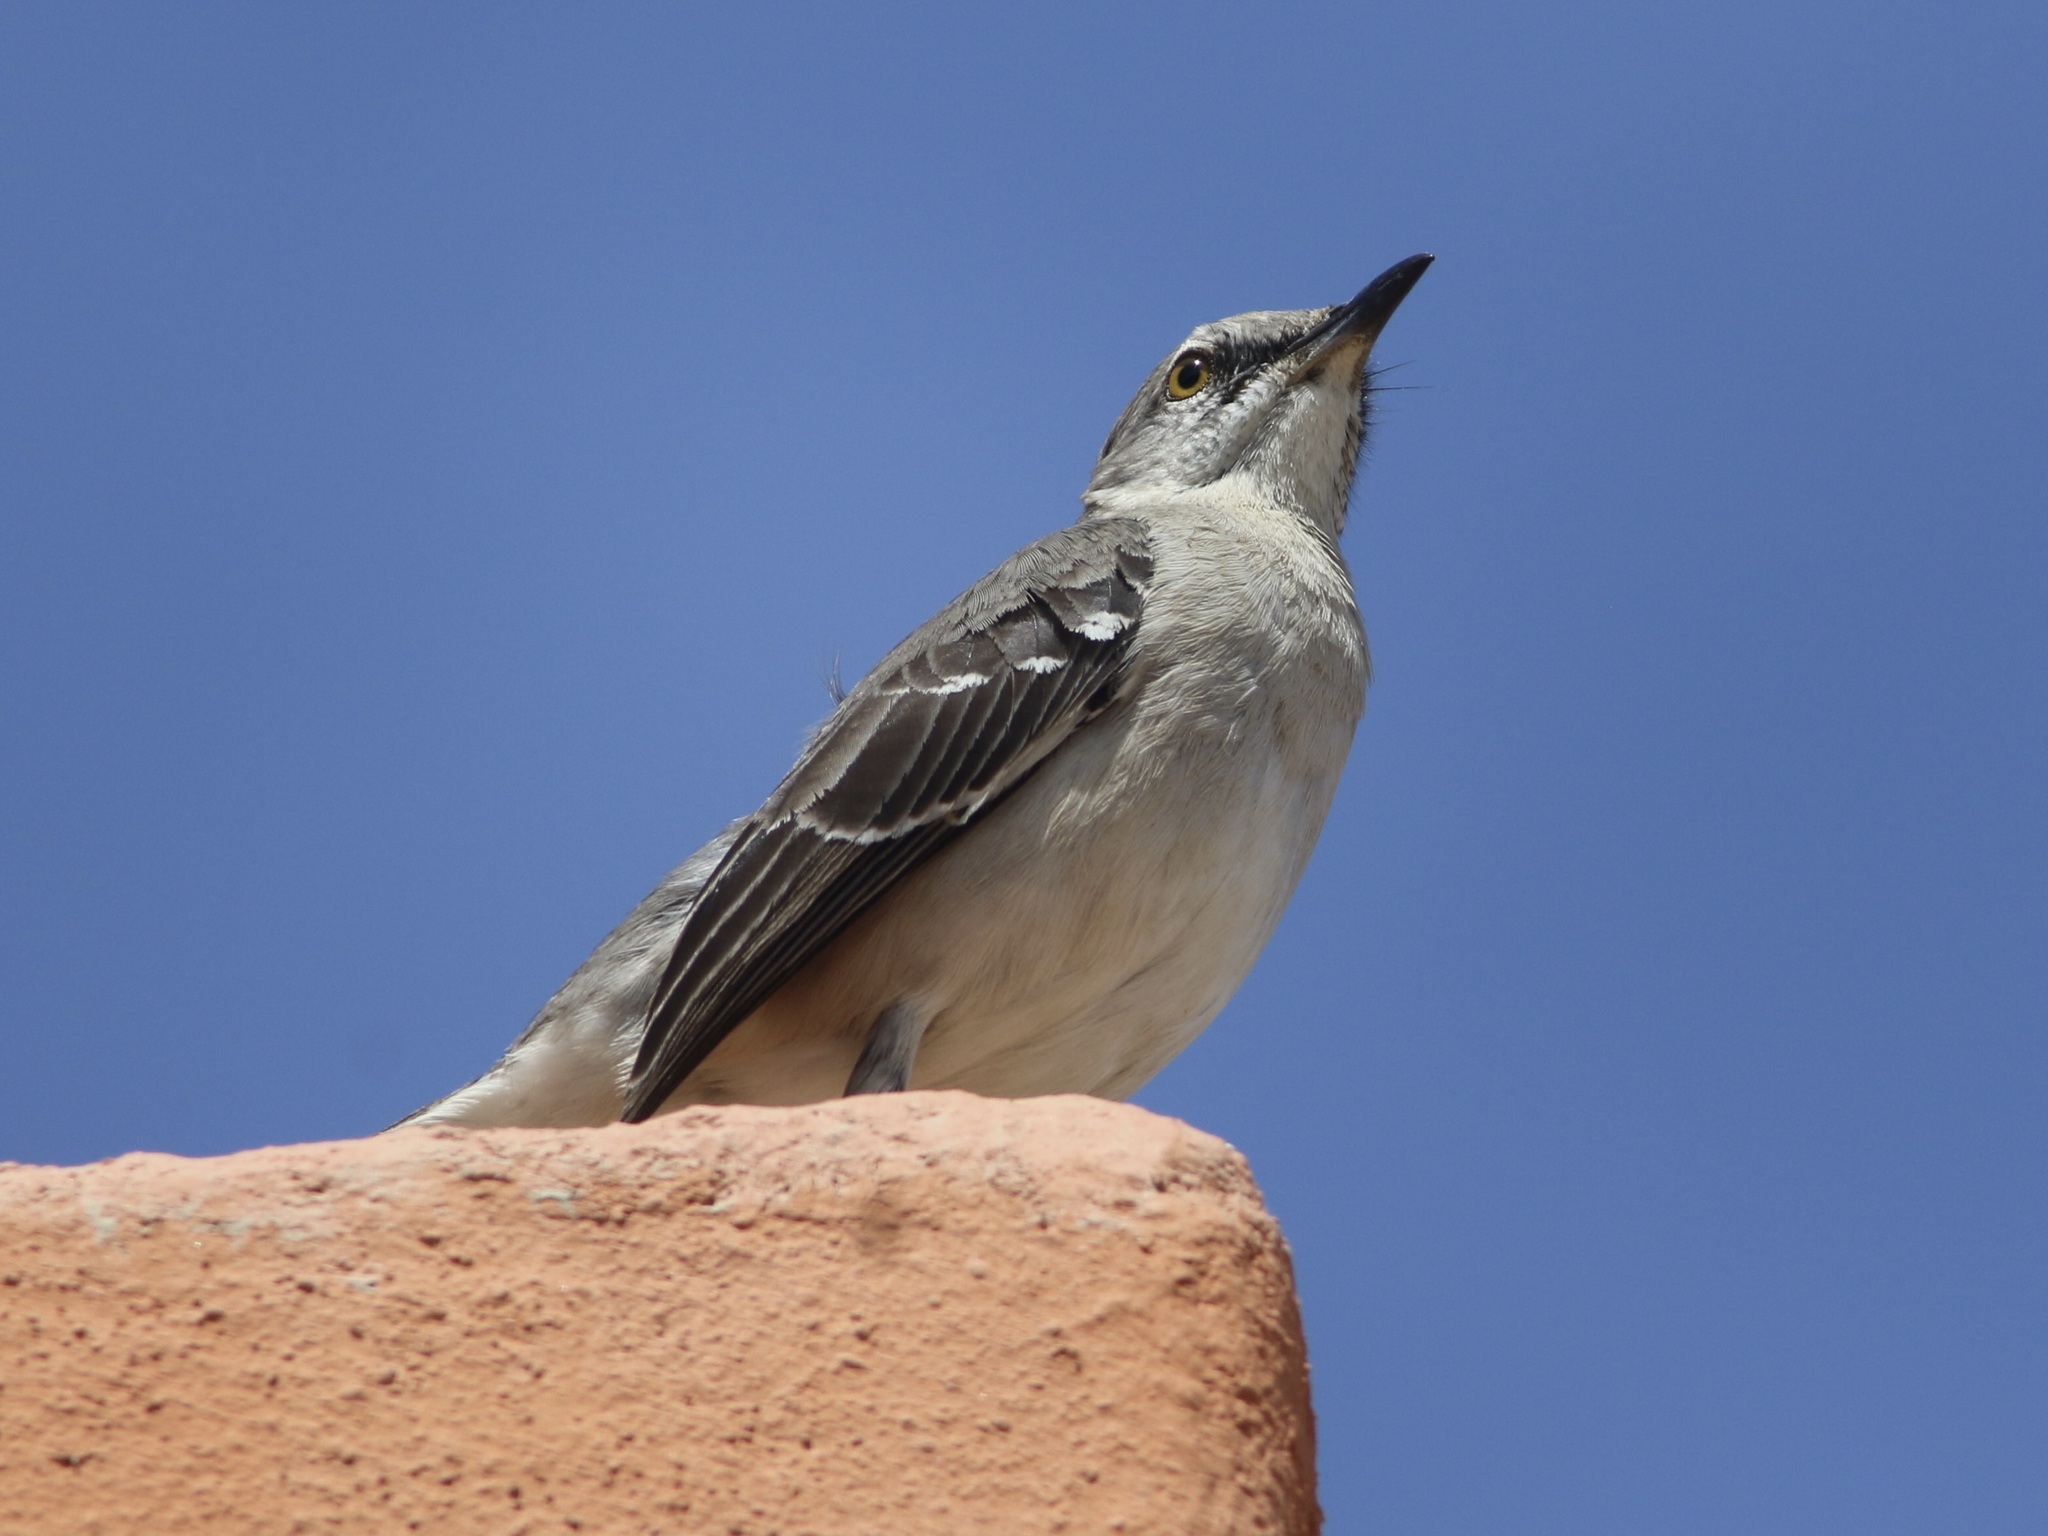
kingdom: Animalia
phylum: Chordata
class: Aves
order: Passeriformes
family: Mimidae
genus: Mimus
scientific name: Mimus polyglottos
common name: Northern mockingbird
